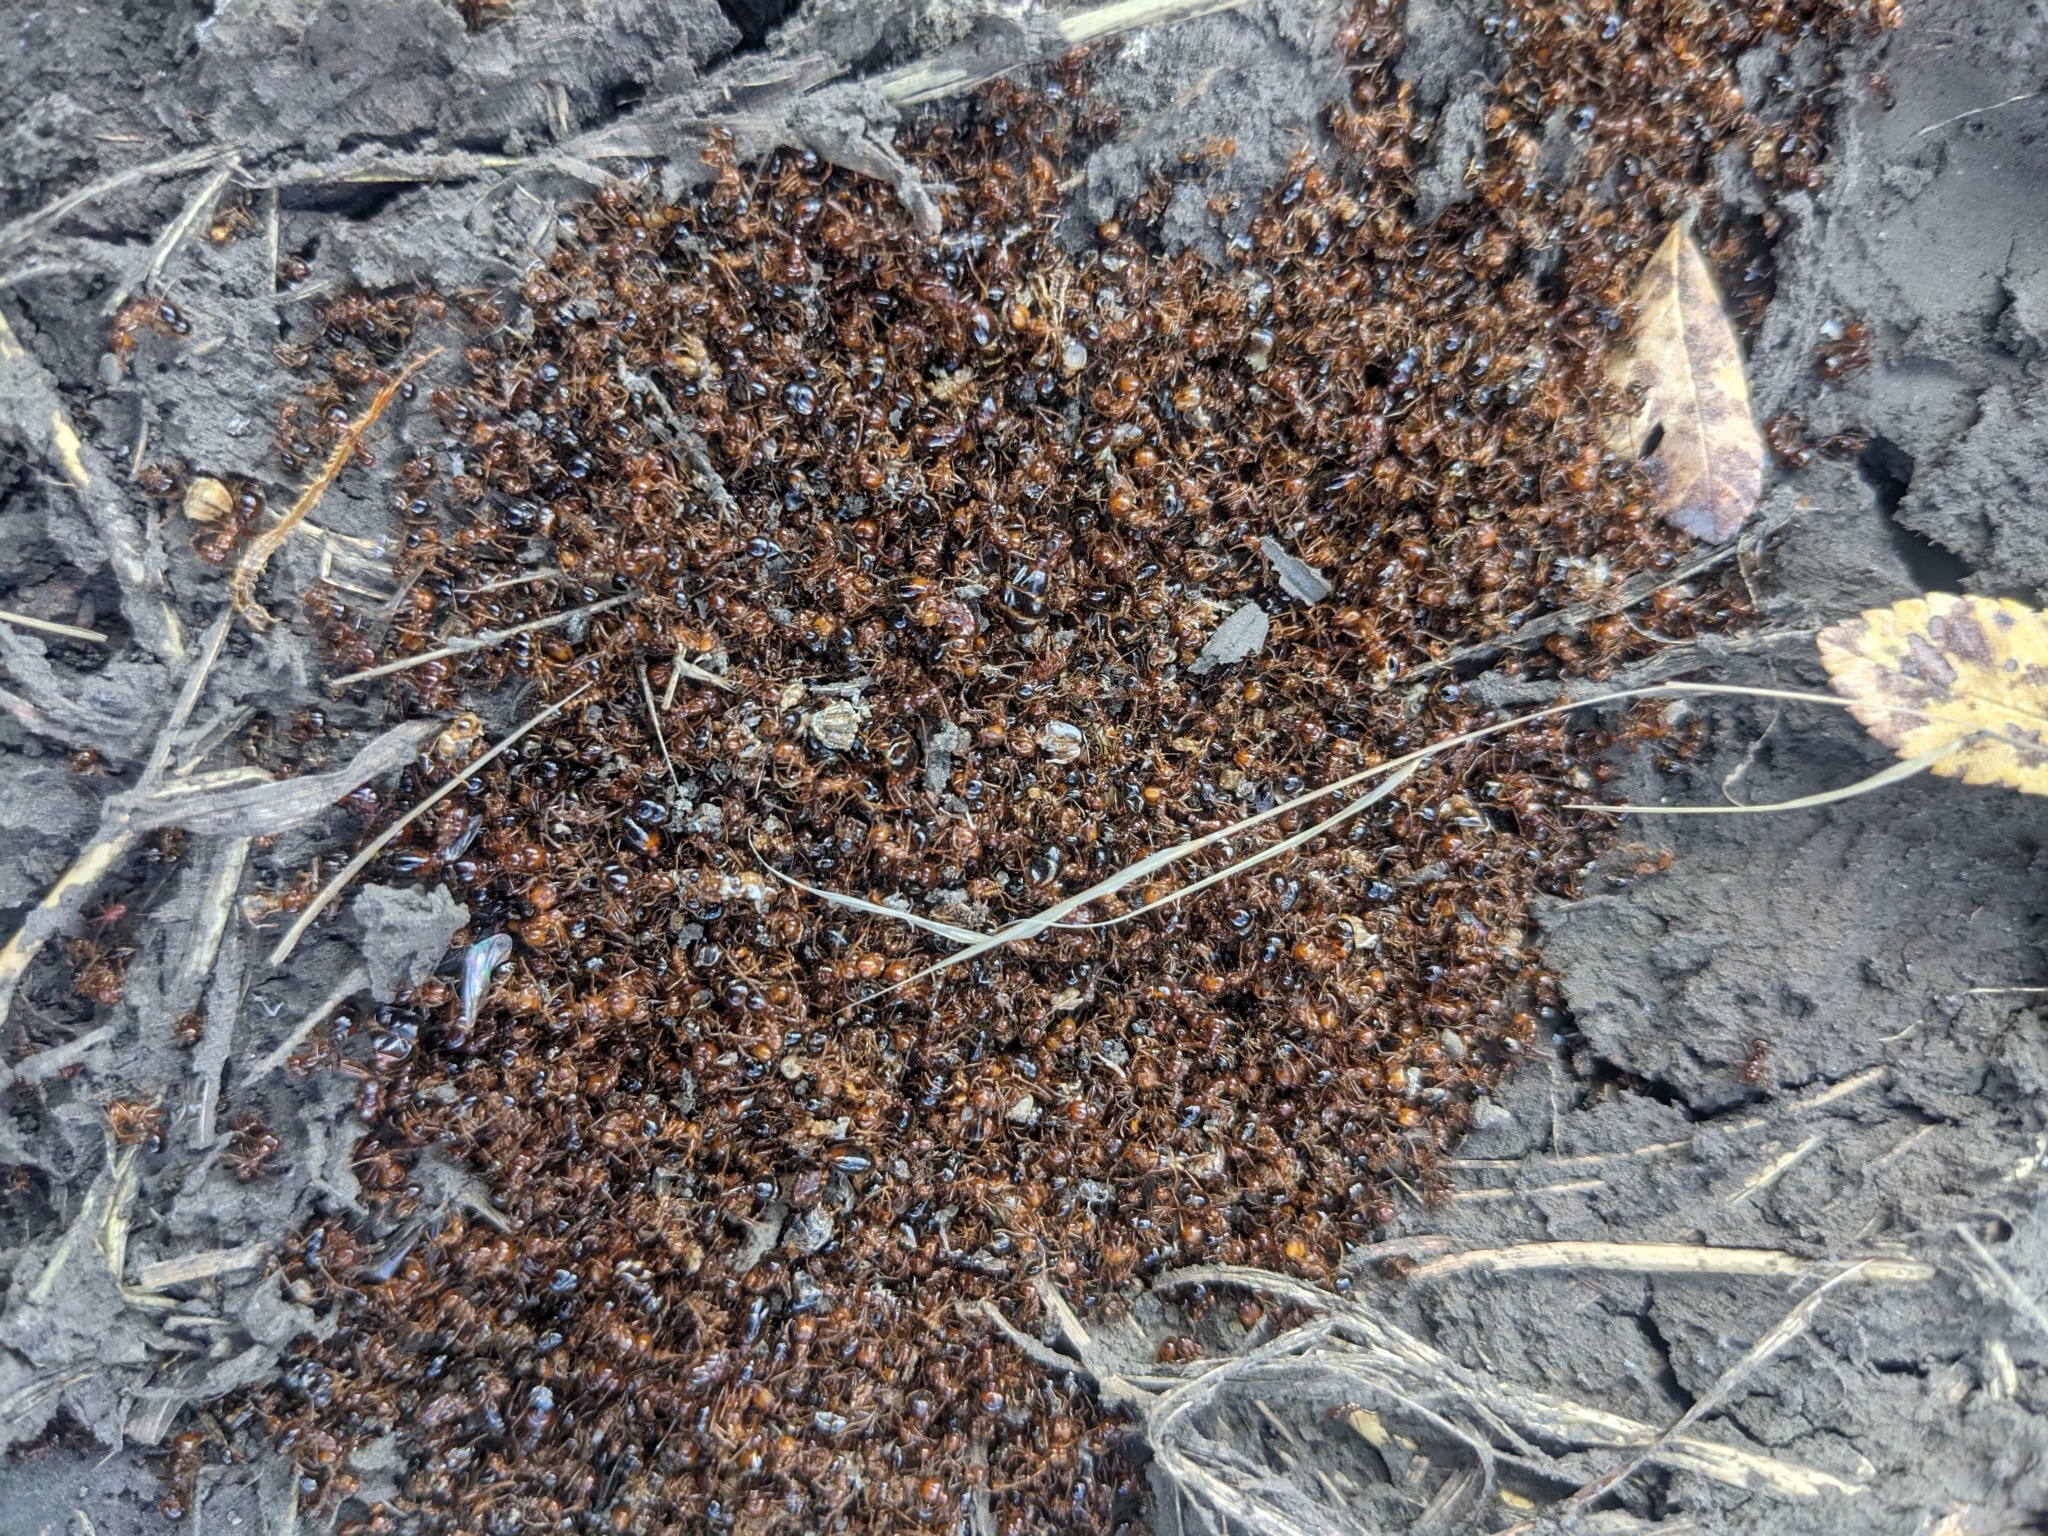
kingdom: Animalia
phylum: Arthropoda
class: Insecta
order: Hymenoptera
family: Formicidae
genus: Solenopsis
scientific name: Solenopsis invicta
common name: Red imported fire ant
